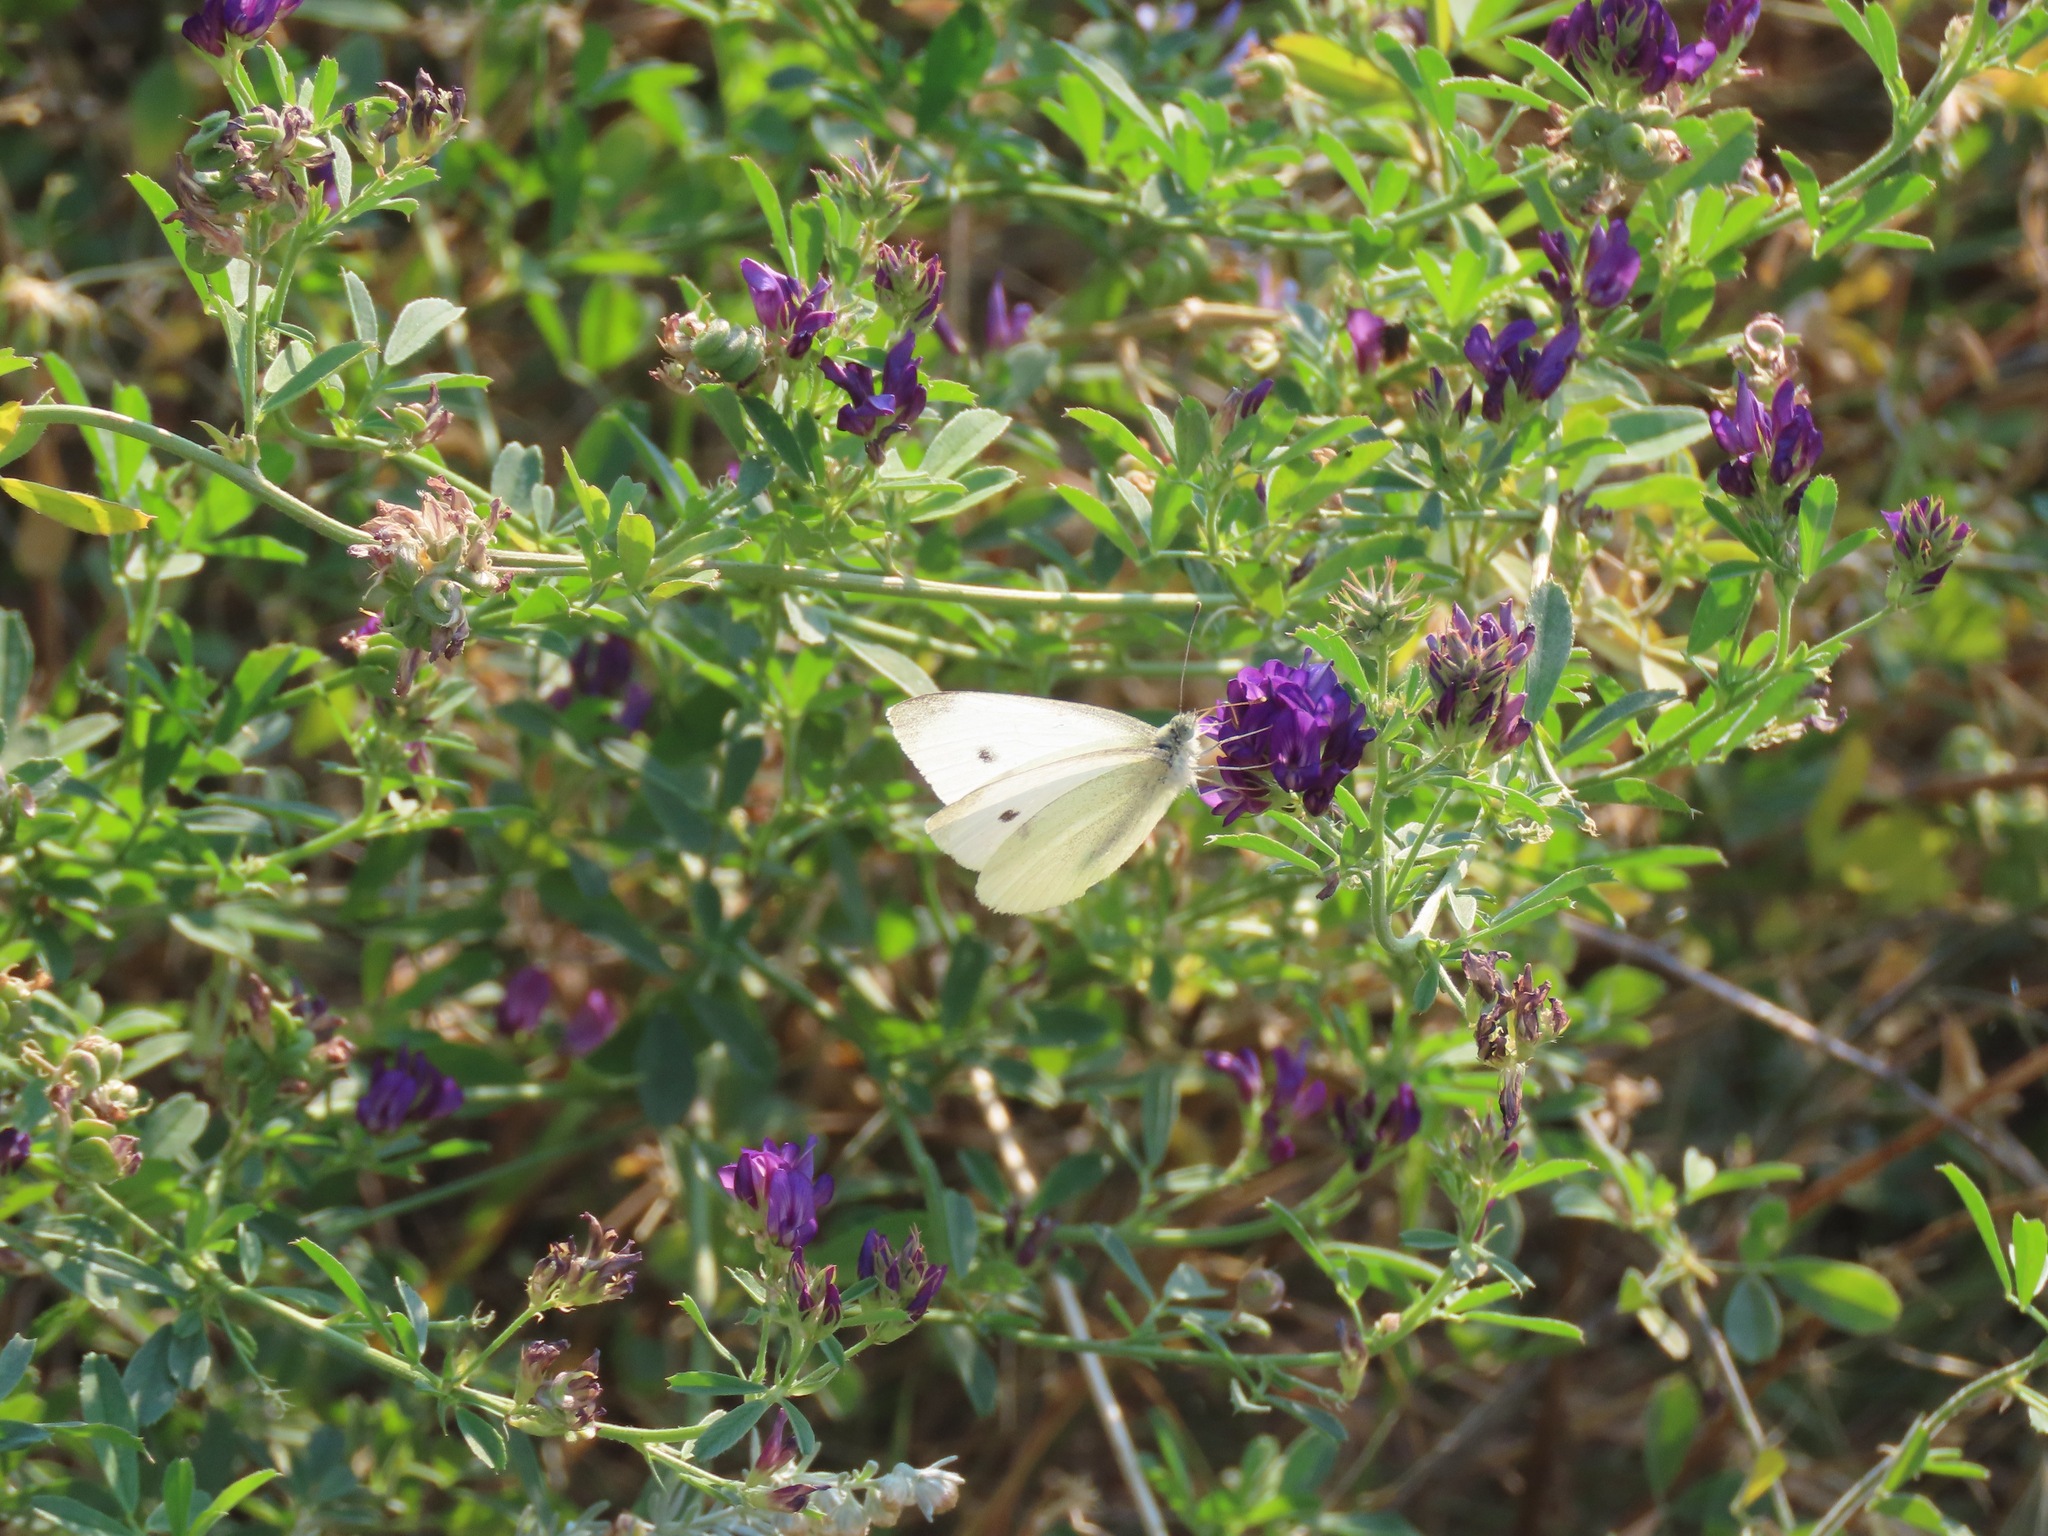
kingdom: Animalia
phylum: Arthropoda
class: Insecta
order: Lepidoptera
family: Pieridae
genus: Pieris
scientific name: Pieris rapae
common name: Small white
